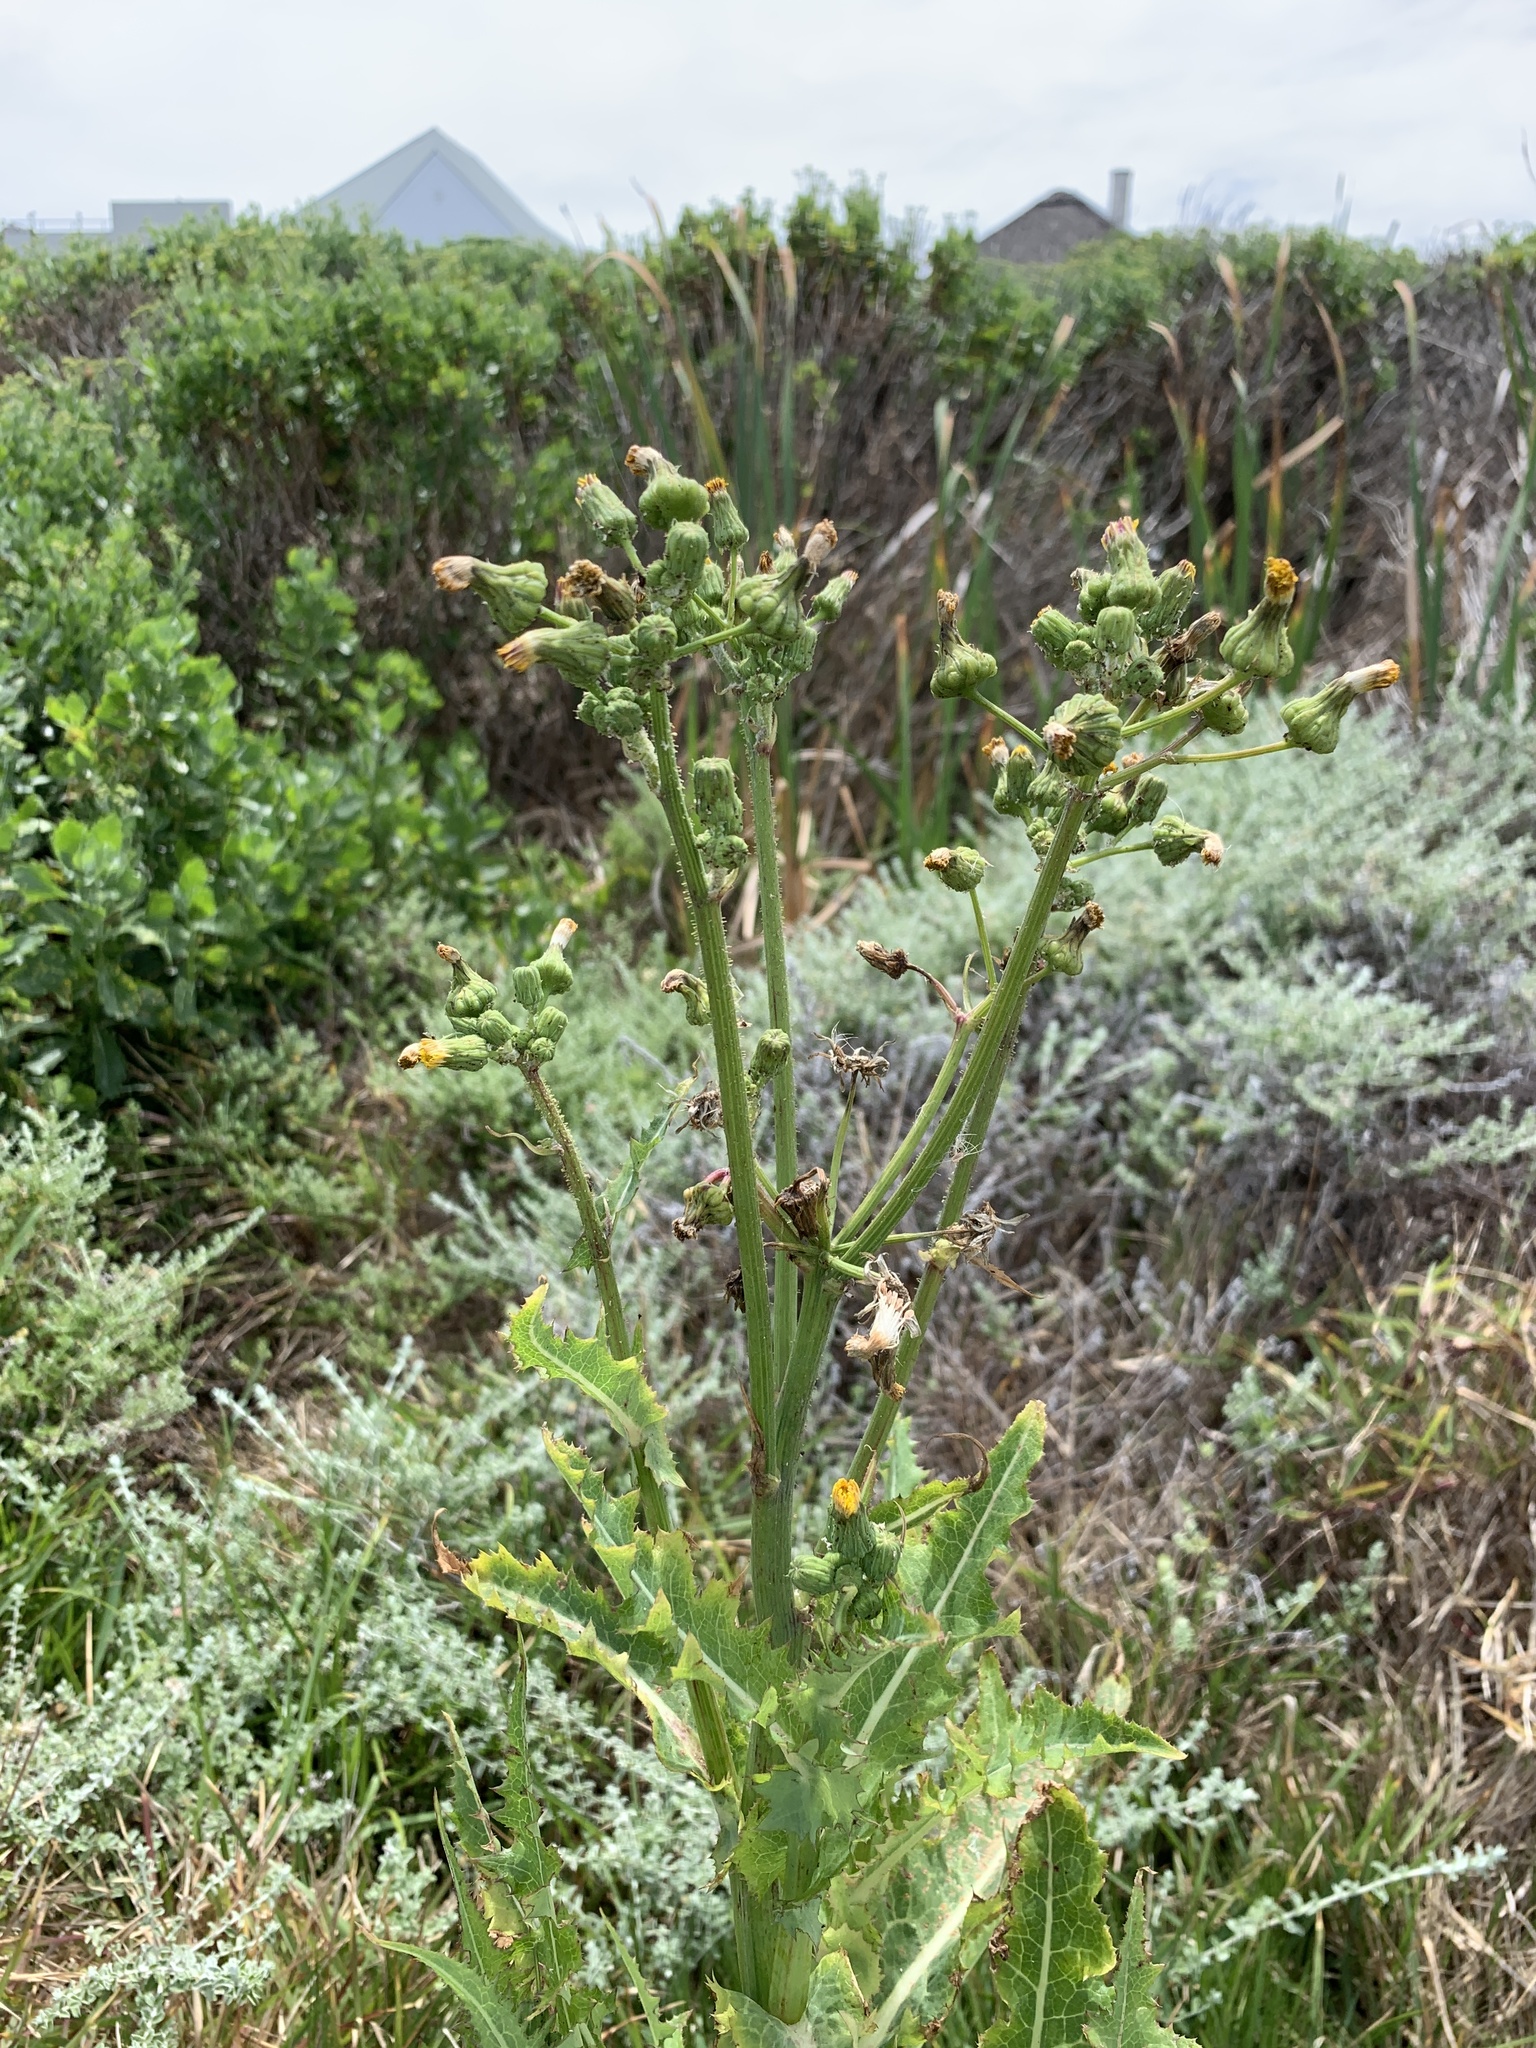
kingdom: Plantae
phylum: Tracheophyta
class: Magnoliopsida
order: Asterales
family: Asteraceae
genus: Sonchus
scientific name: Sonchus asper
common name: Prickly sow-thistle
